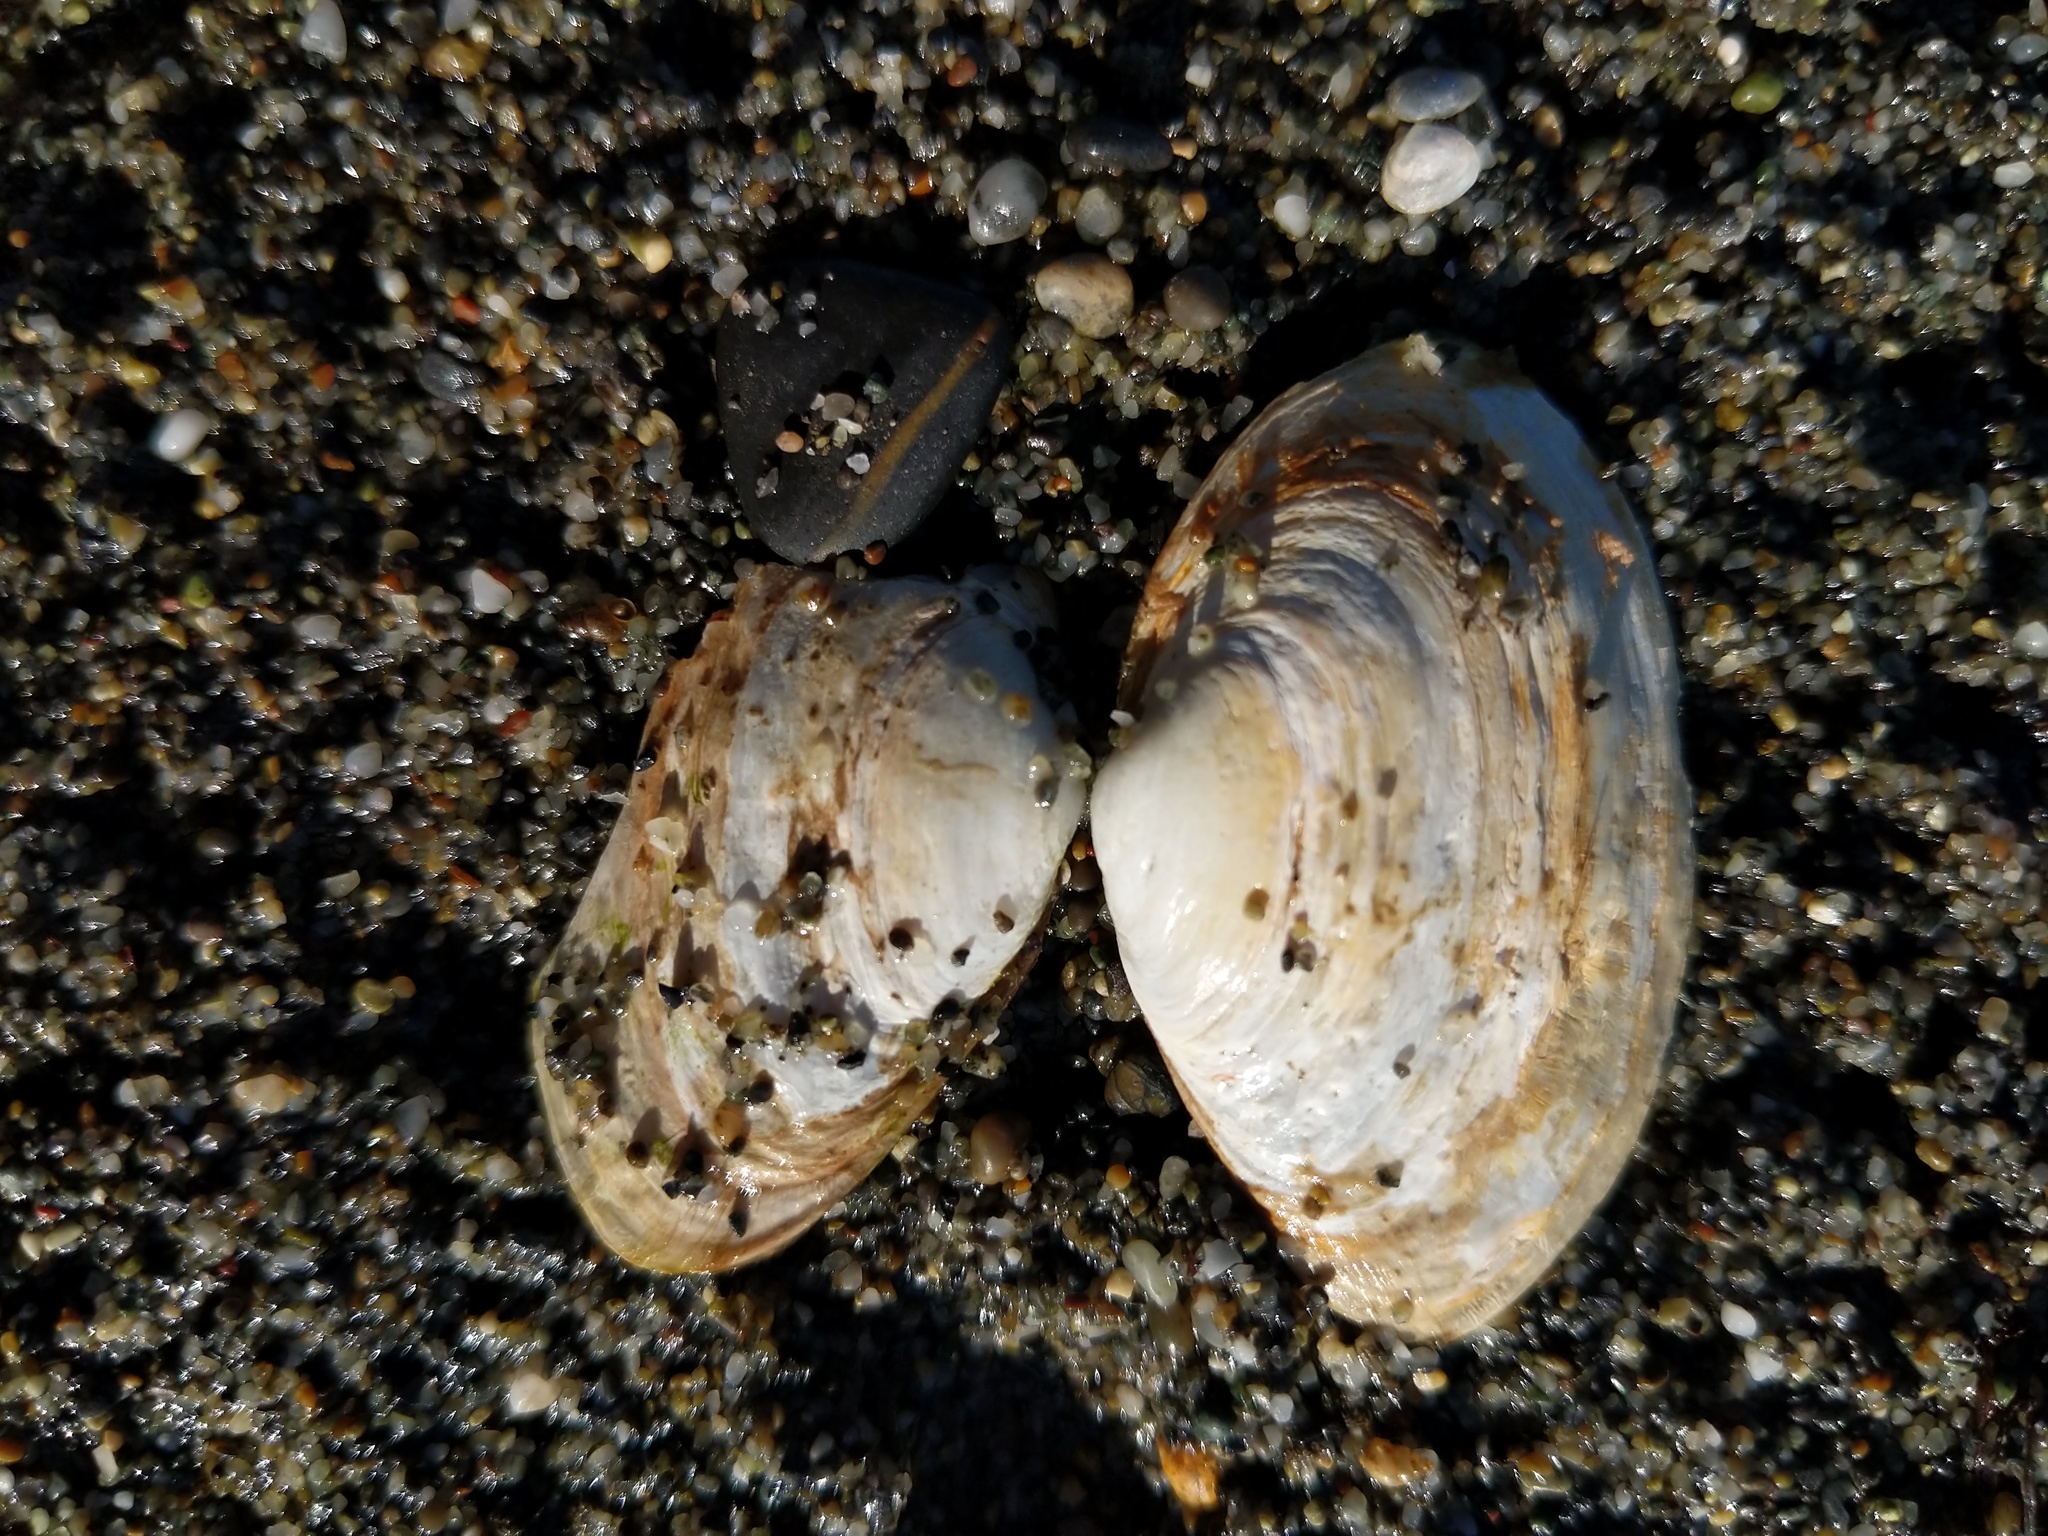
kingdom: Animalia
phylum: Mollusca
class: Bivalvia
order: Myida
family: Myidae
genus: Mya
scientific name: Mya arenaria
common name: Soft-shelled clam
